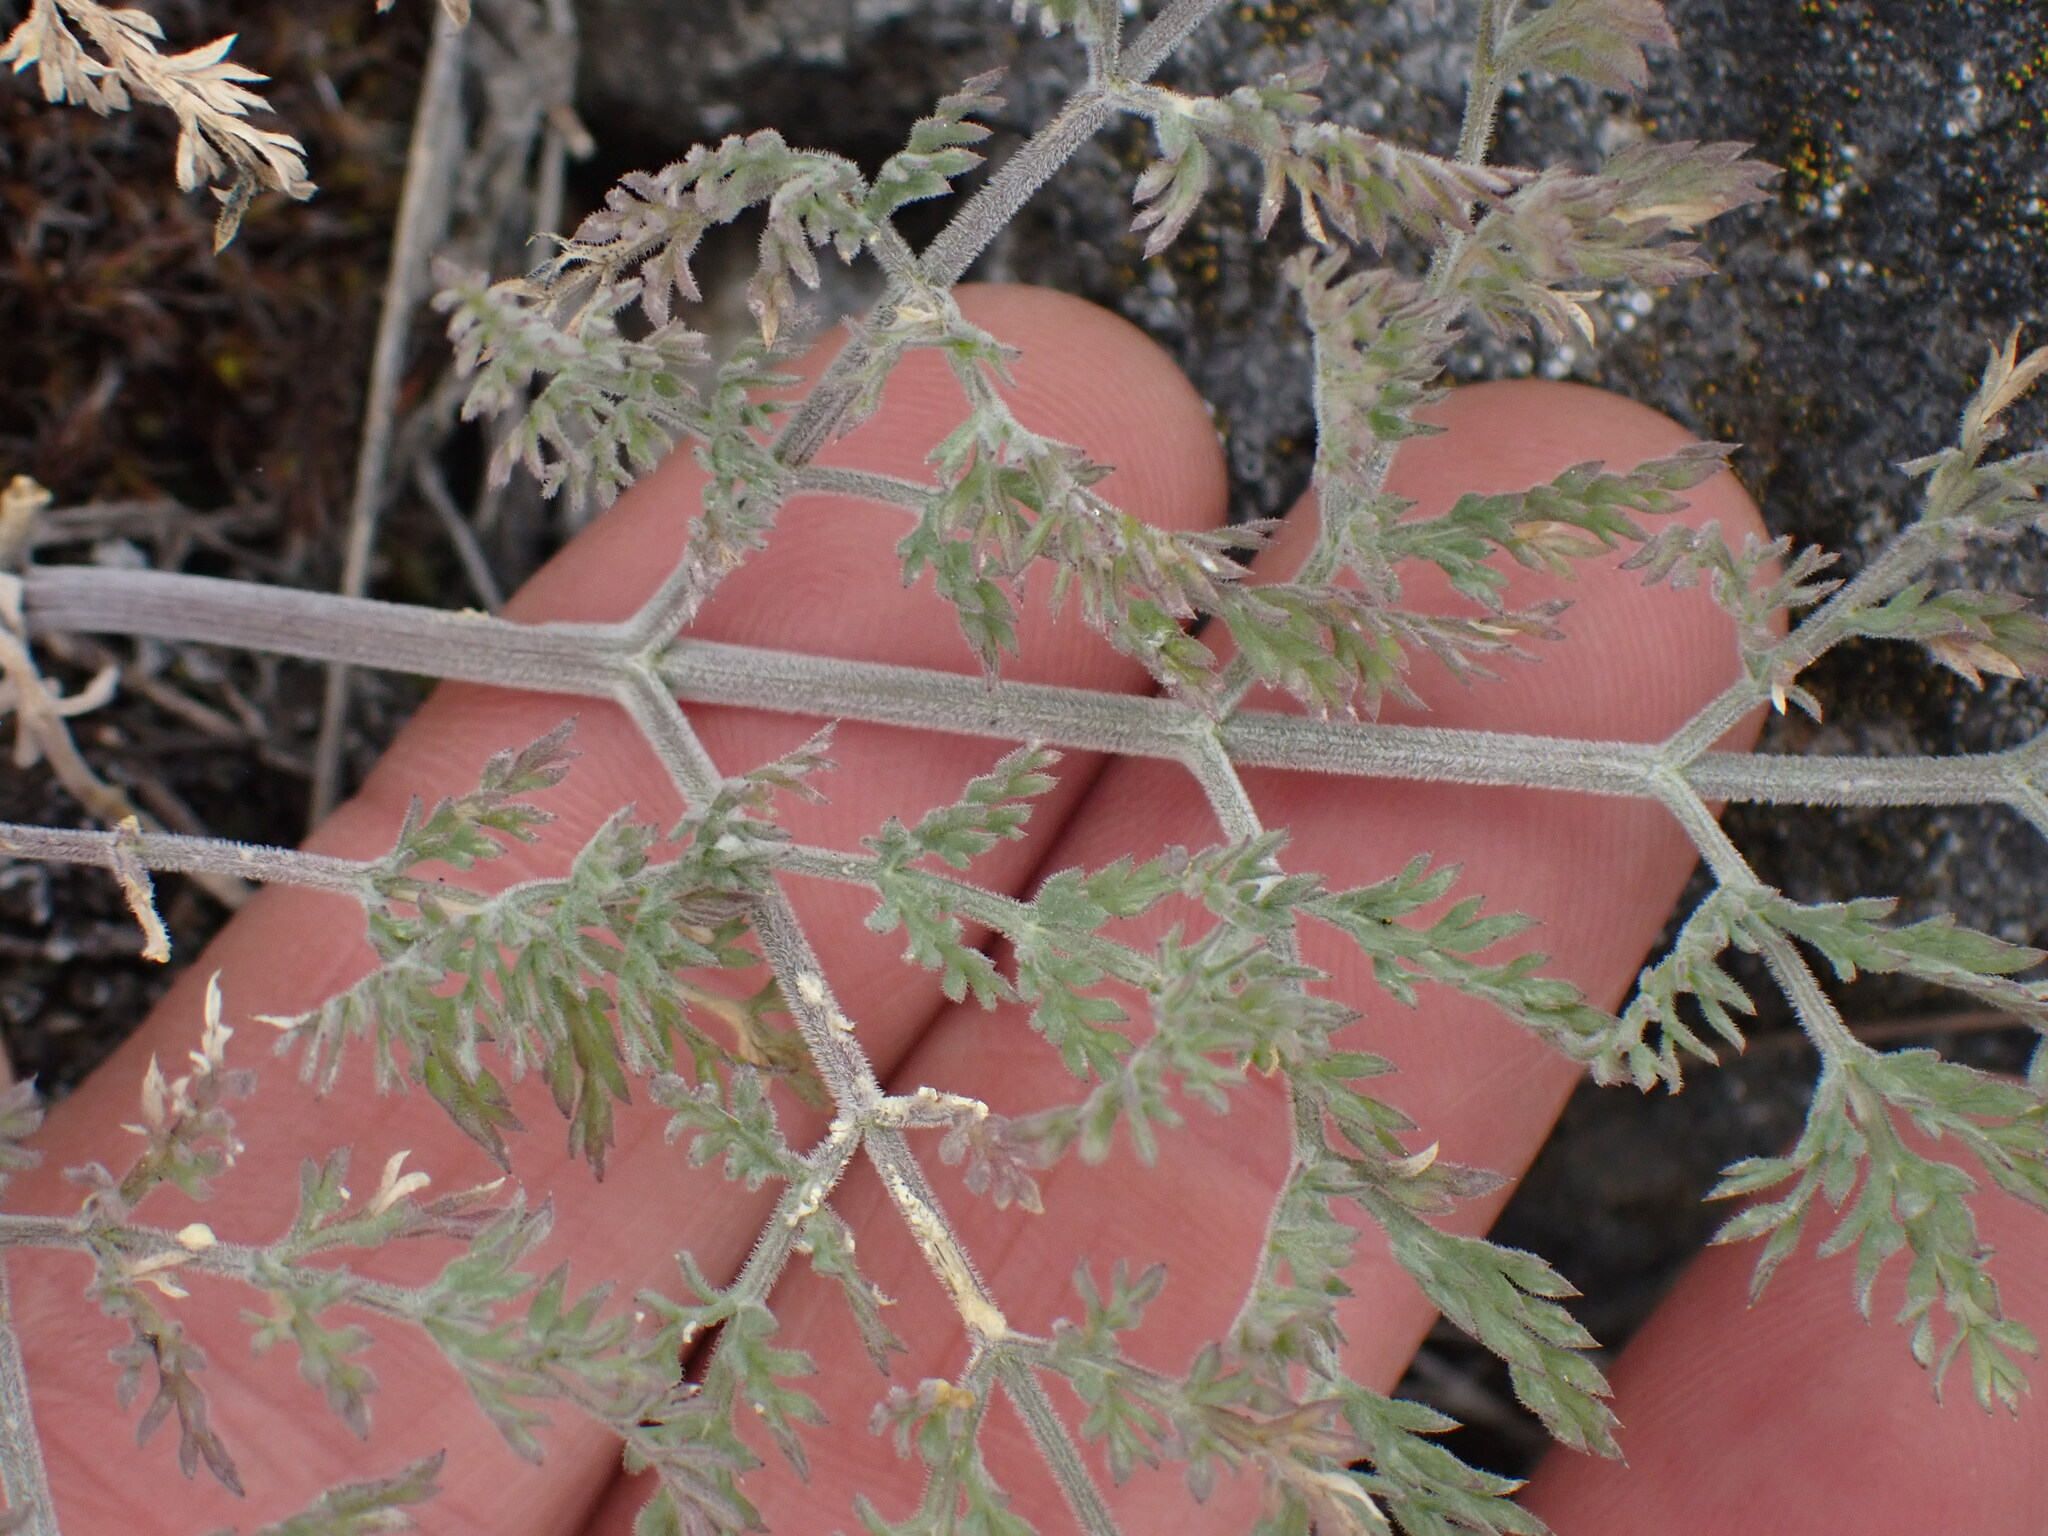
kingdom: Plantae
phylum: Tracheophyta
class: Magnoliopsida
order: Apiales
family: Apiaceae
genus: Lomatium
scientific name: Lomatium macrocarpum
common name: Big-seed biscuitroot
